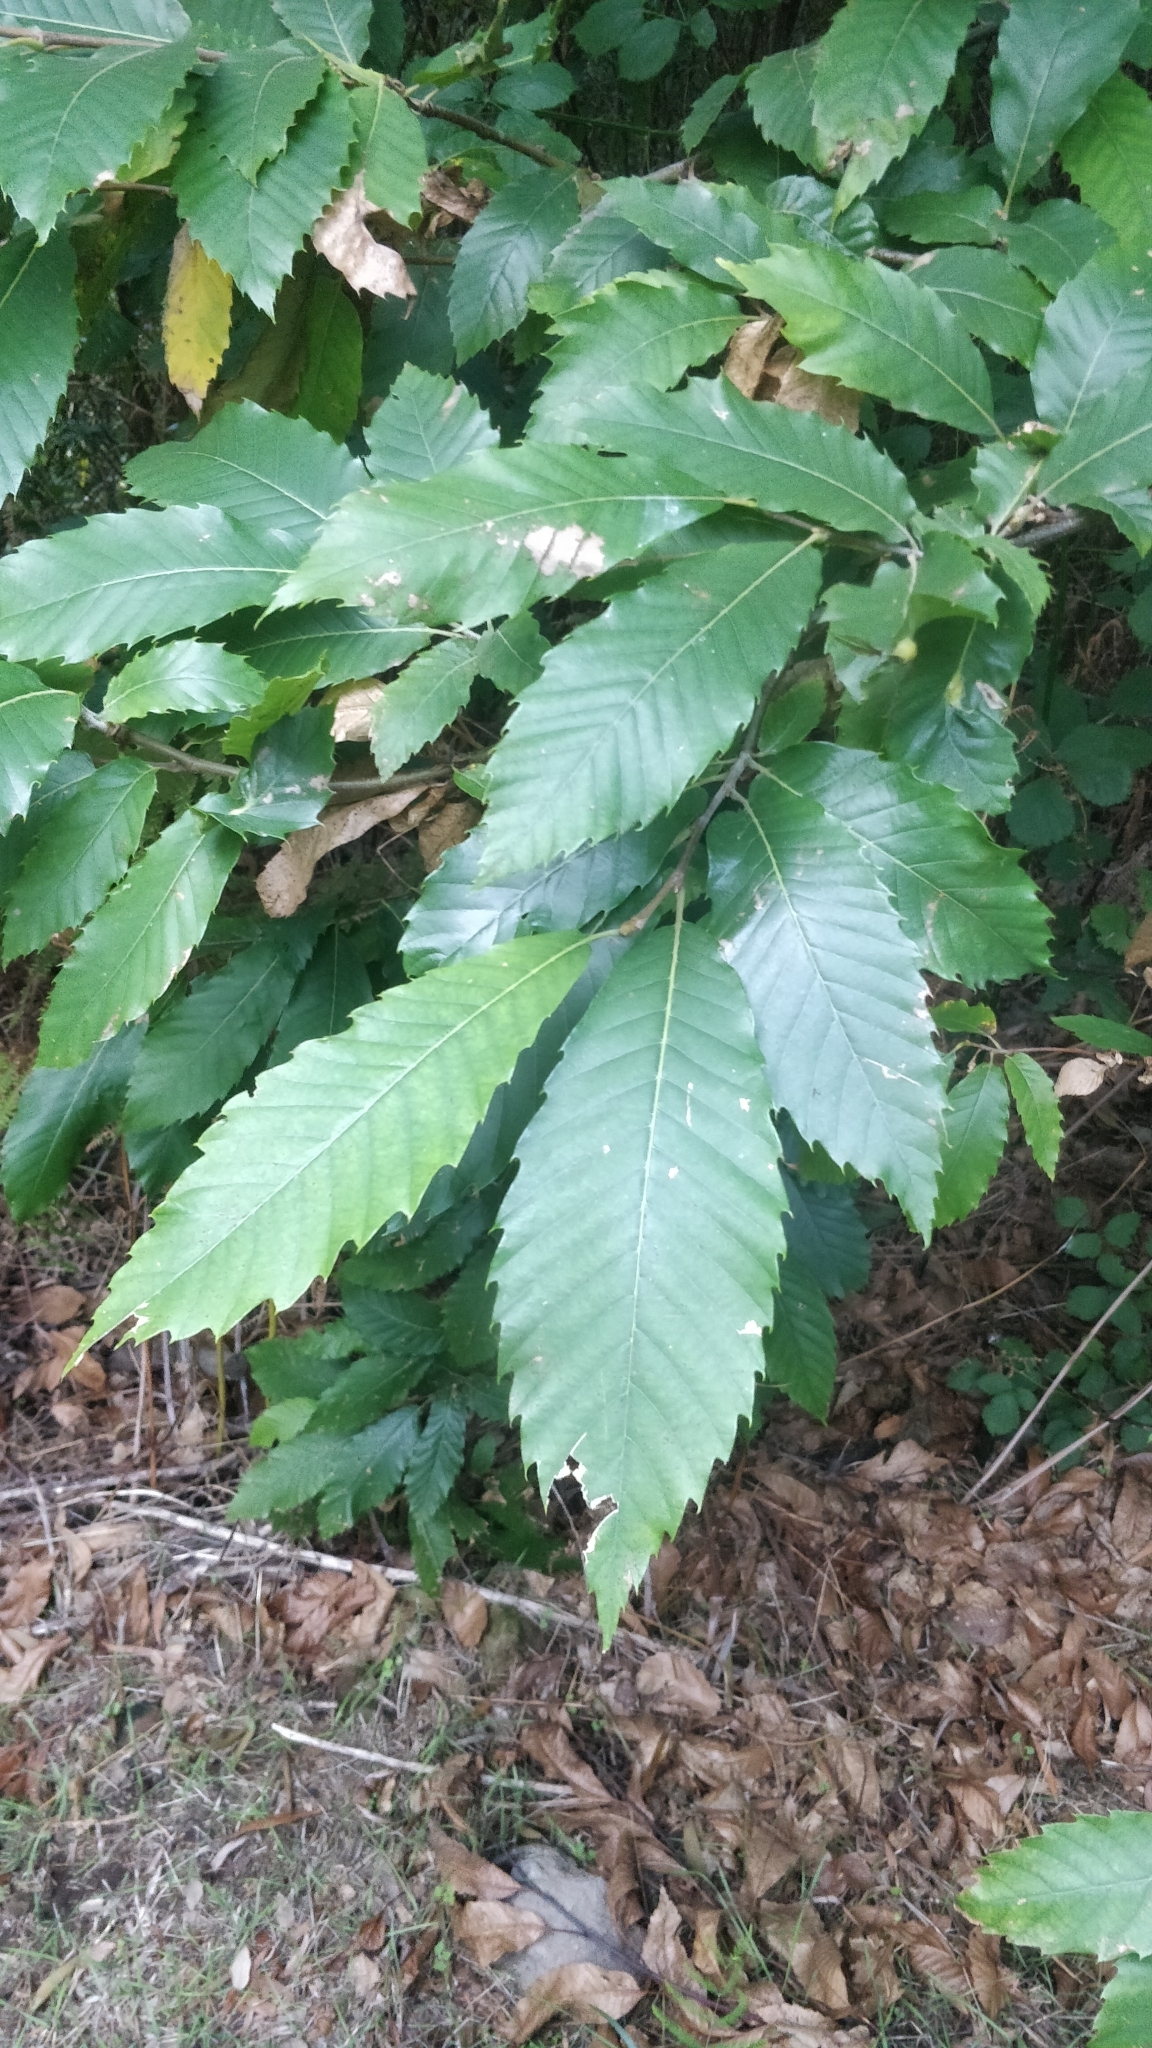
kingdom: Plantae
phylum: Tracheophyta
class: Magnoliopsida
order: Fagales
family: Fagaceae
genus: Castanea
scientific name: Castanea sativa
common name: Sweet chestnut
